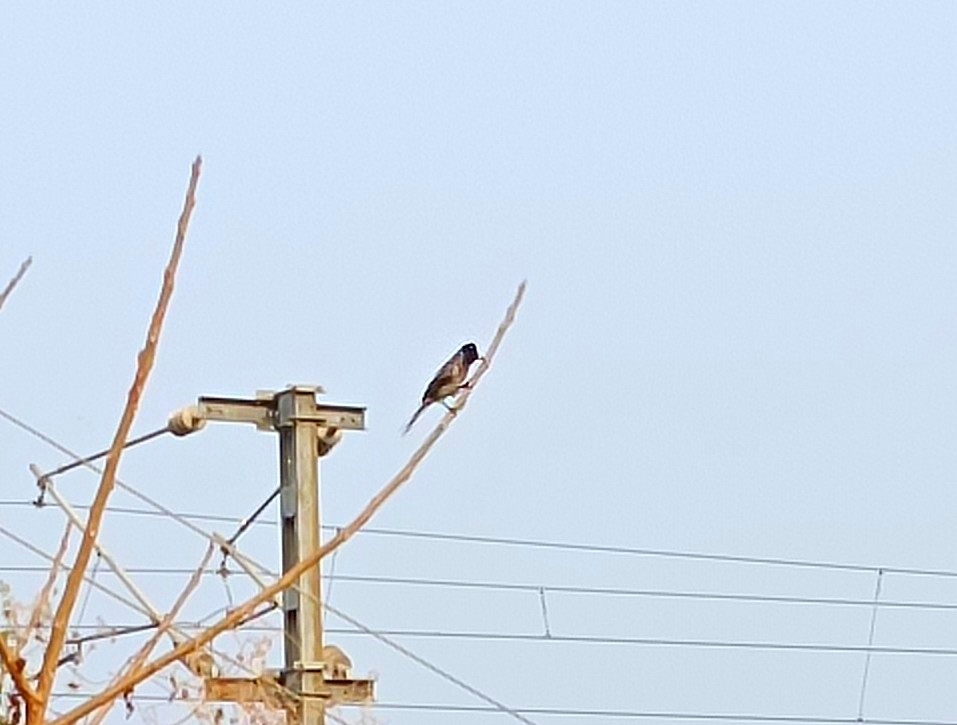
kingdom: Animalia
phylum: Chordata
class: Aves
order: Passeriformes
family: Pycnonotidae
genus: Pycnonotus
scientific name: Pycnonotus cafer
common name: Red-vented bulbul
